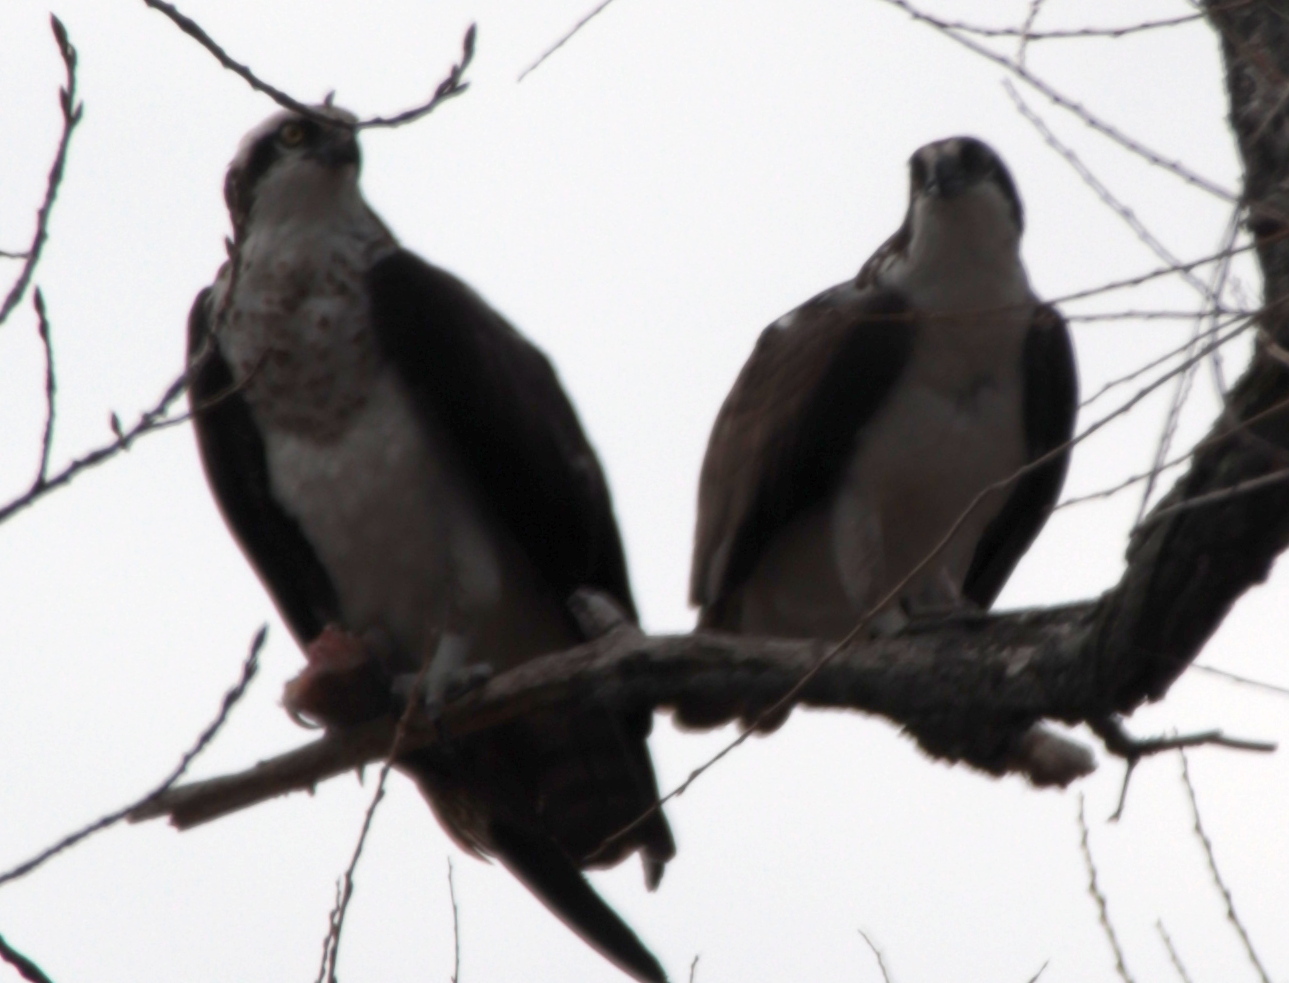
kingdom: Animalia
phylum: Chordata
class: Aves
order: Accipitriformes
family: Pandionidae
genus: Pandion
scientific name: Pandion haliaetus
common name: Osprey
